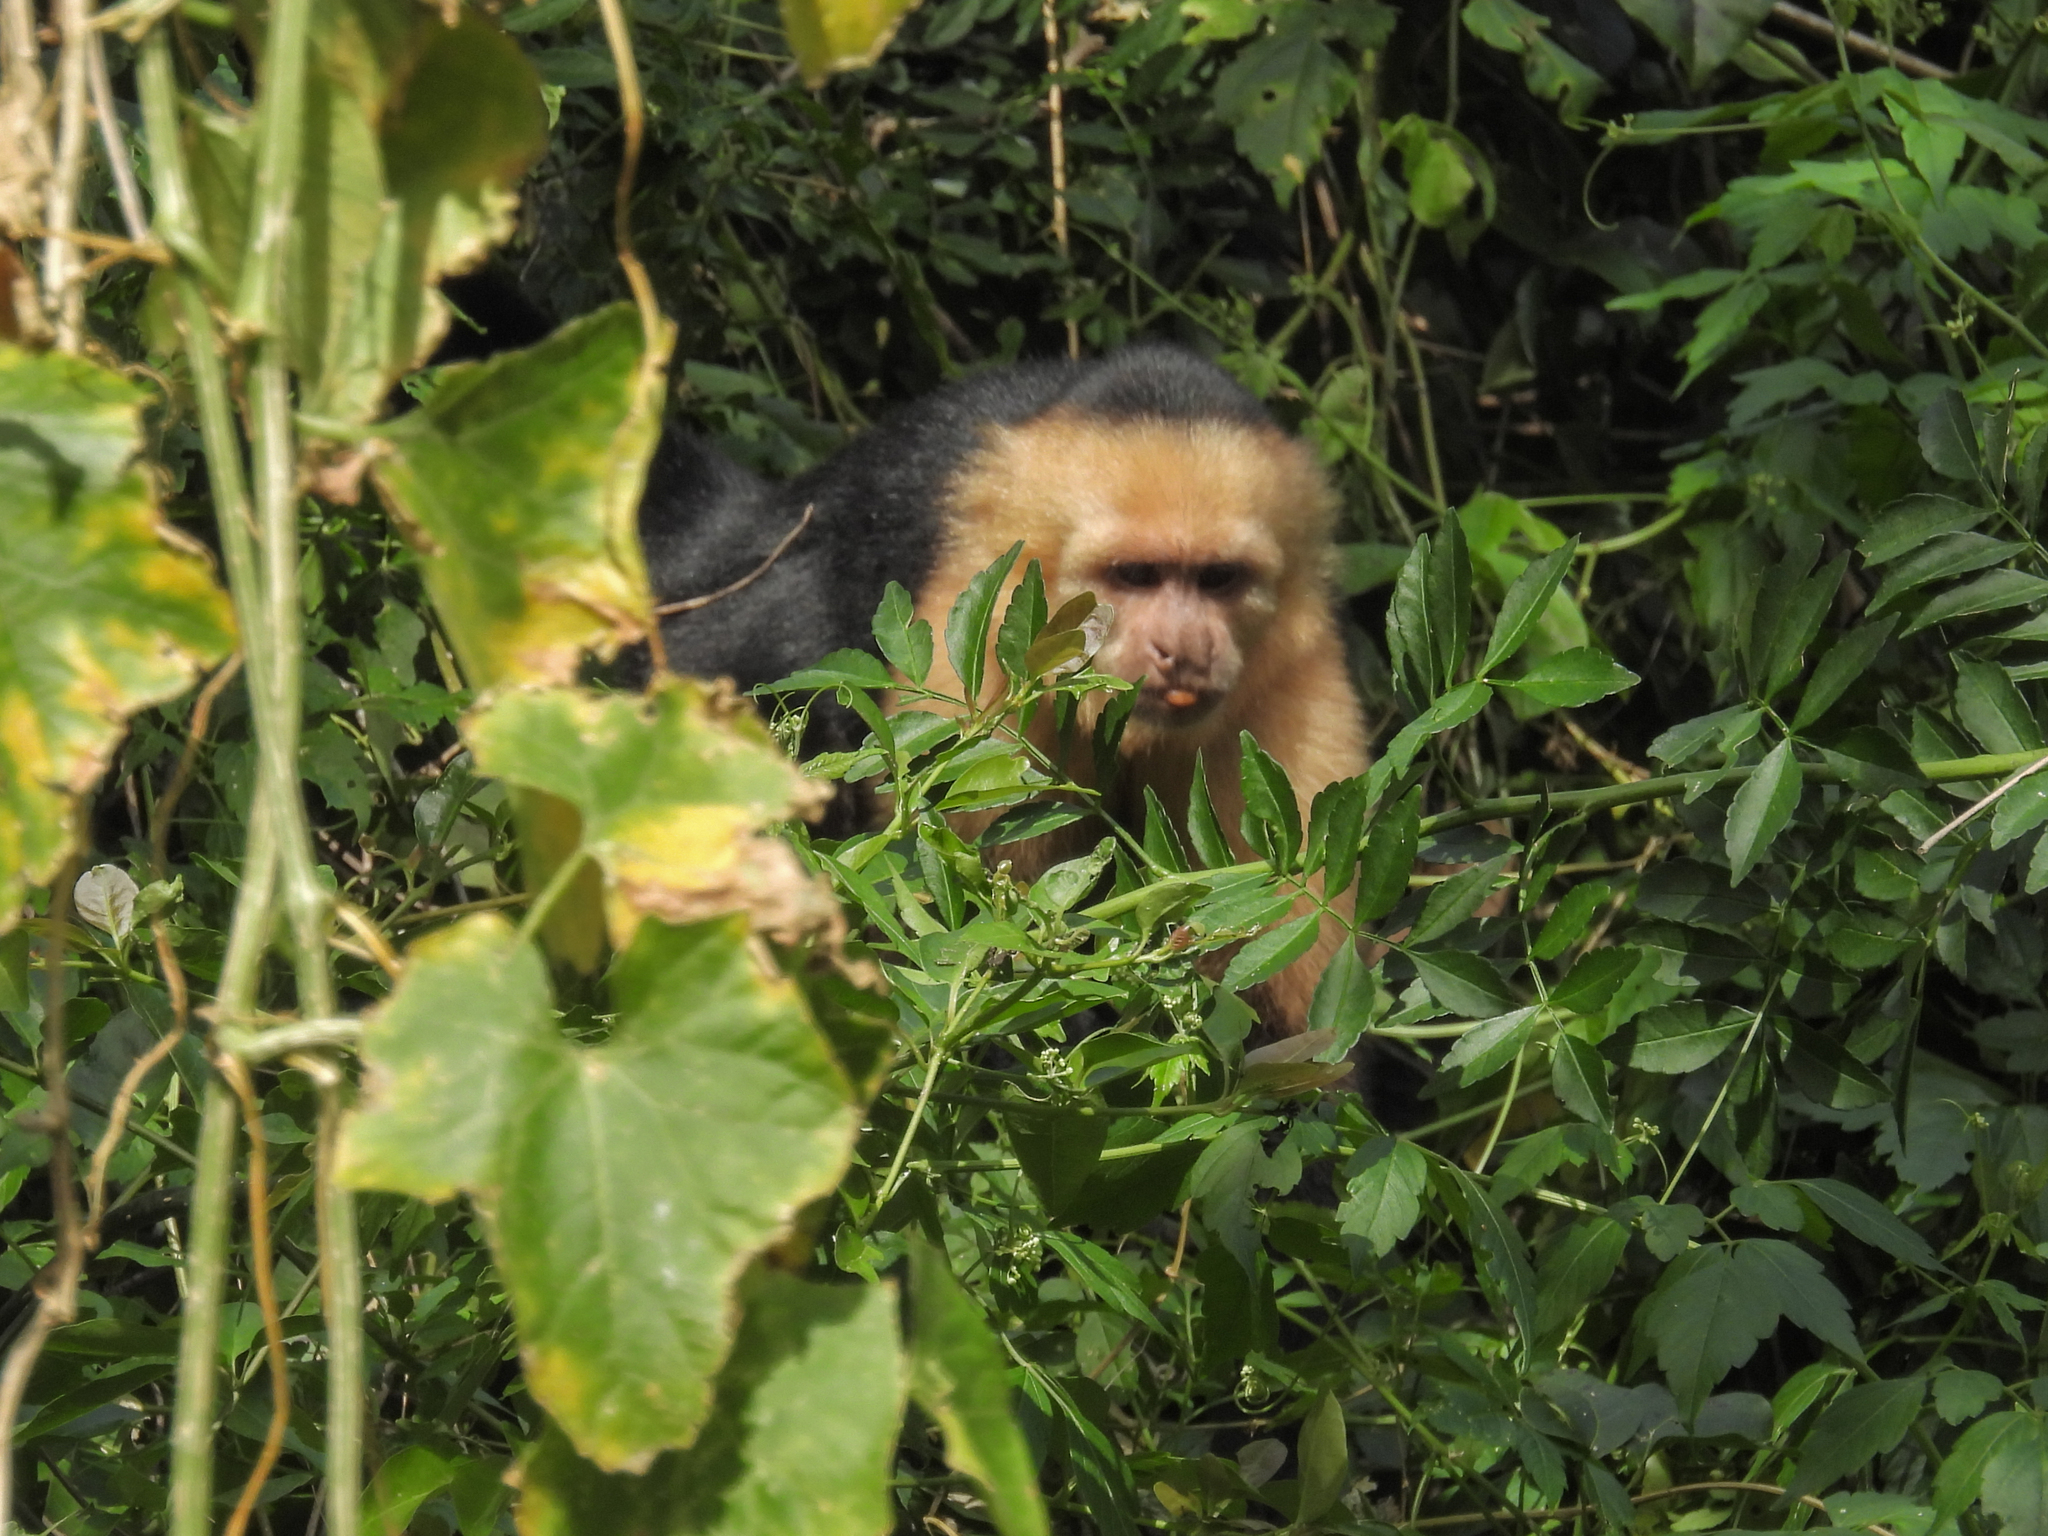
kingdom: Animalia
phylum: Chordata
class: Mammalia
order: Primates
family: Cebidae
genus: Cebus
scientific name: Cebus imitator
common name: Panamanian white-faced capuchin
